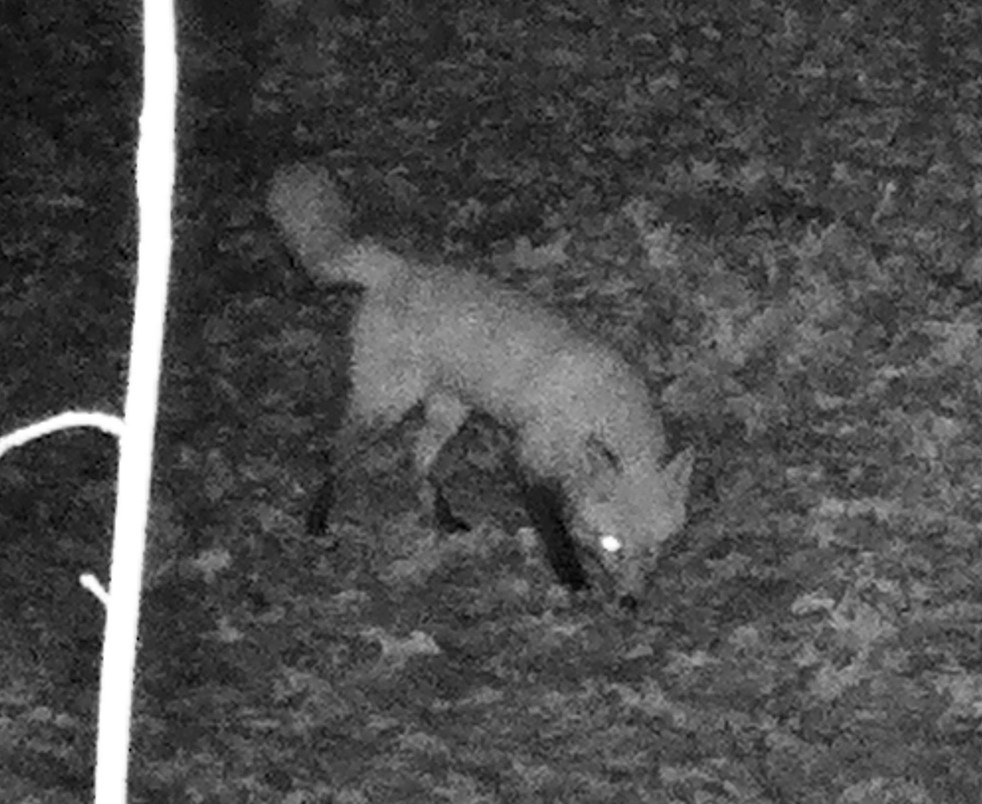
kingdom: Animalia
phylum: Chordata
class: Mammalia
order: Carnivora
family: Canidae
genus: Vulpes
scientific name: Vulpes vulpes
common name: Red fox
